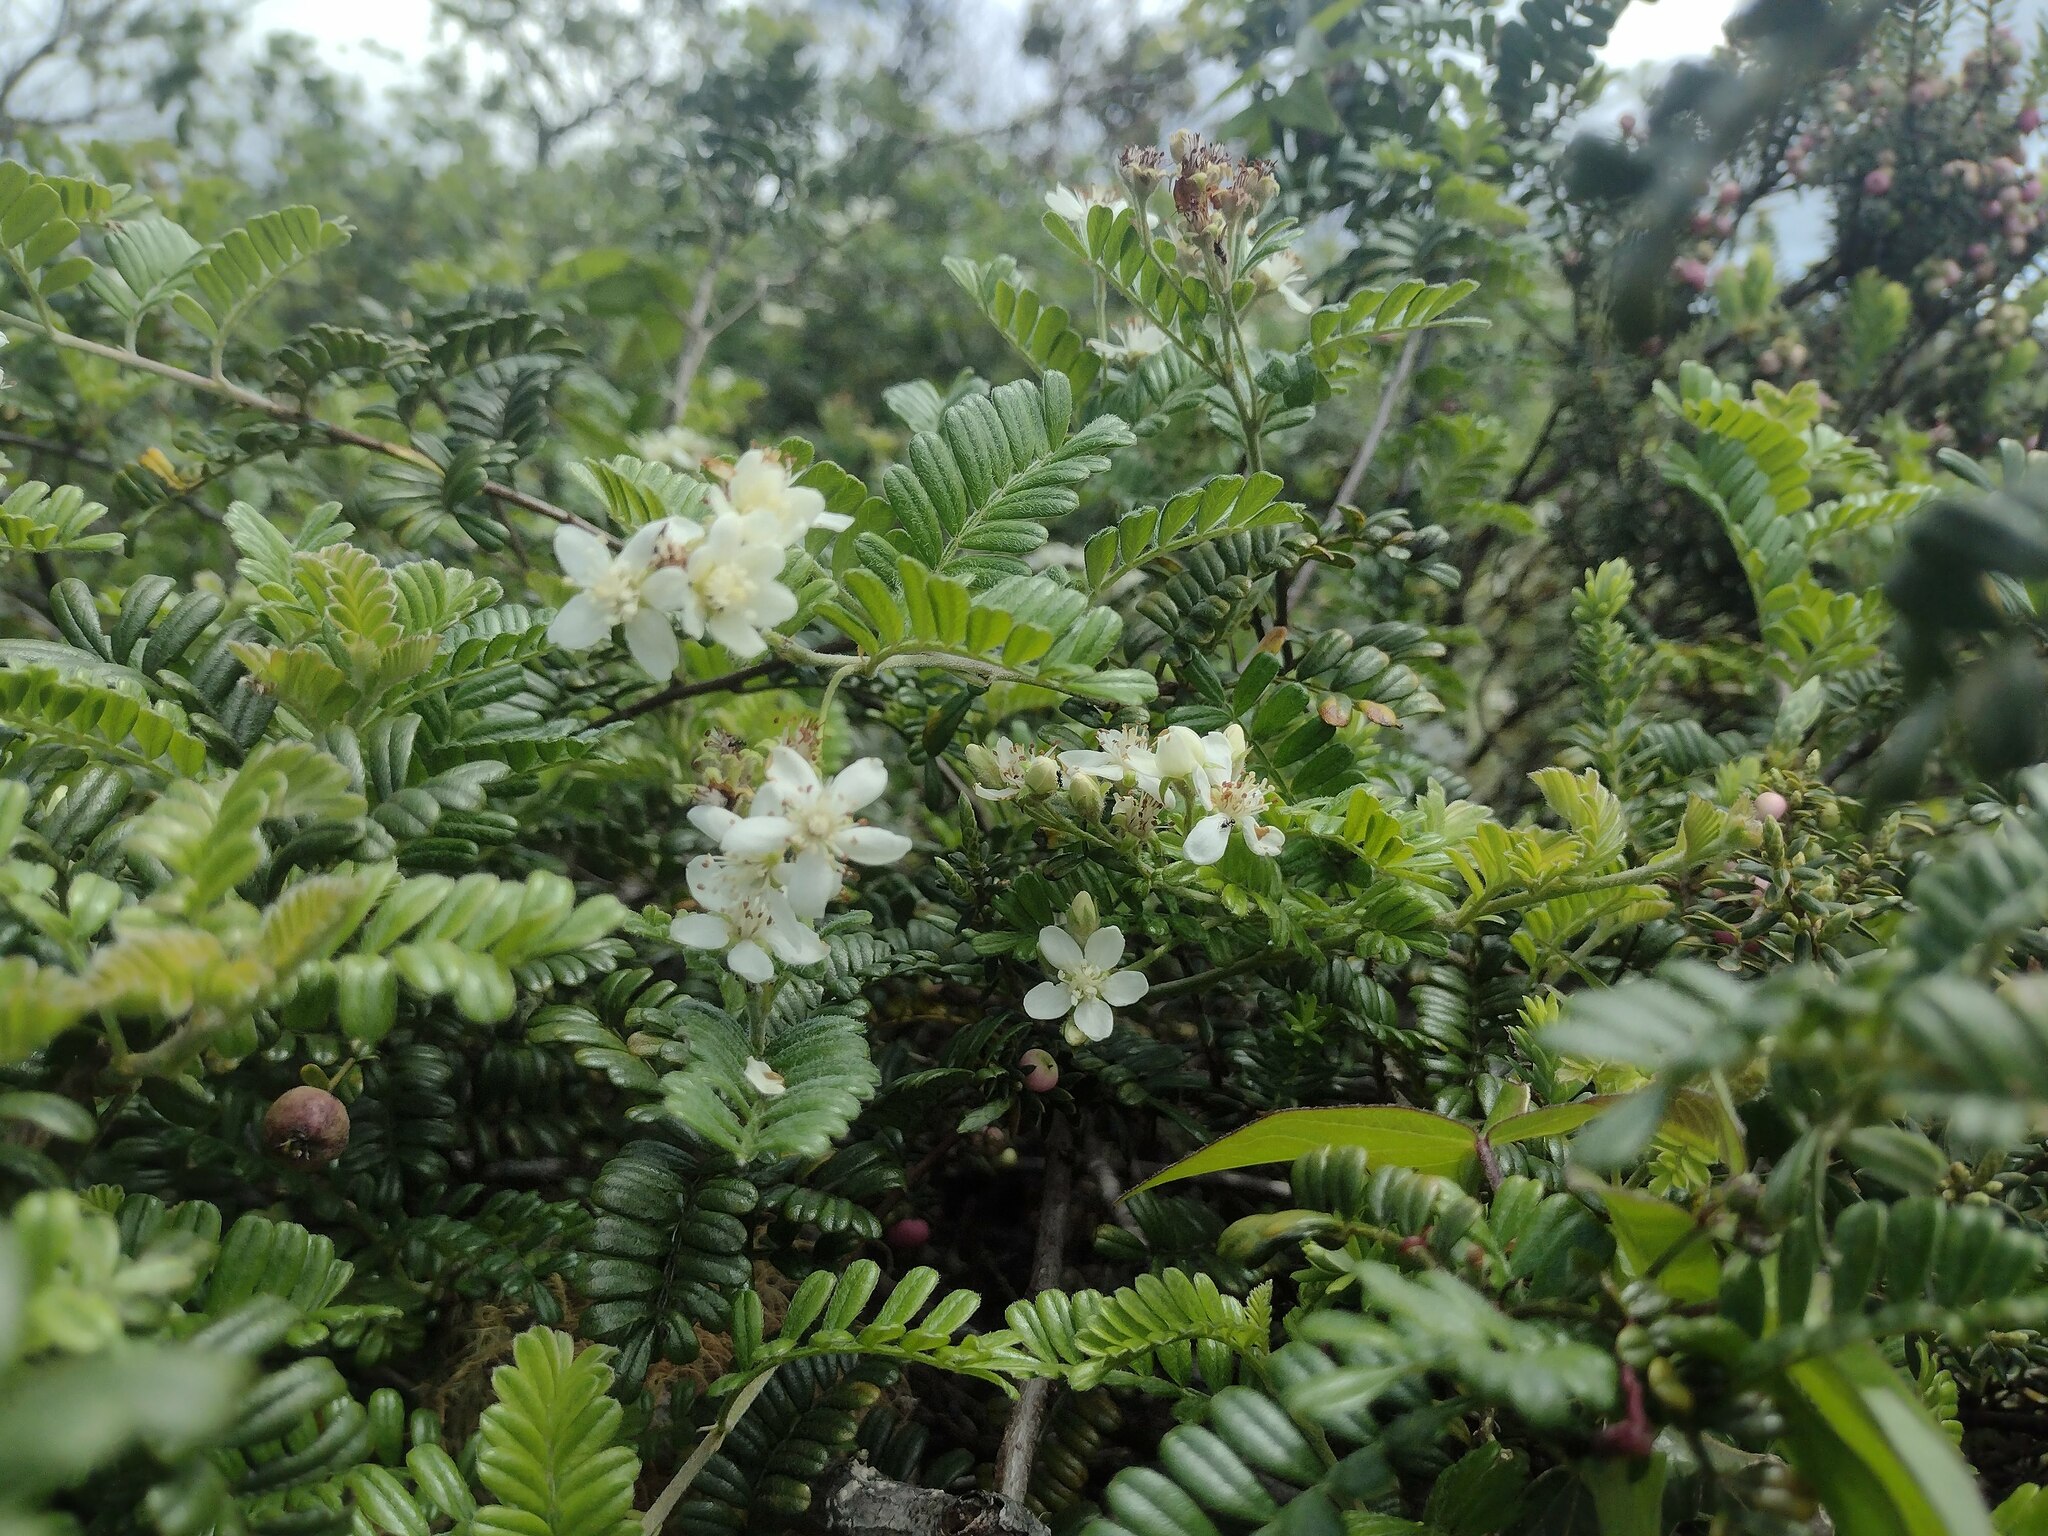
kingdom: Plantae
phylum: Tracheophyta
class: Magnoliopsida
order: Rosales
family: Rosaceae
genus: Osteomeles
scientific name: Osteomeles anthyllidifolia
